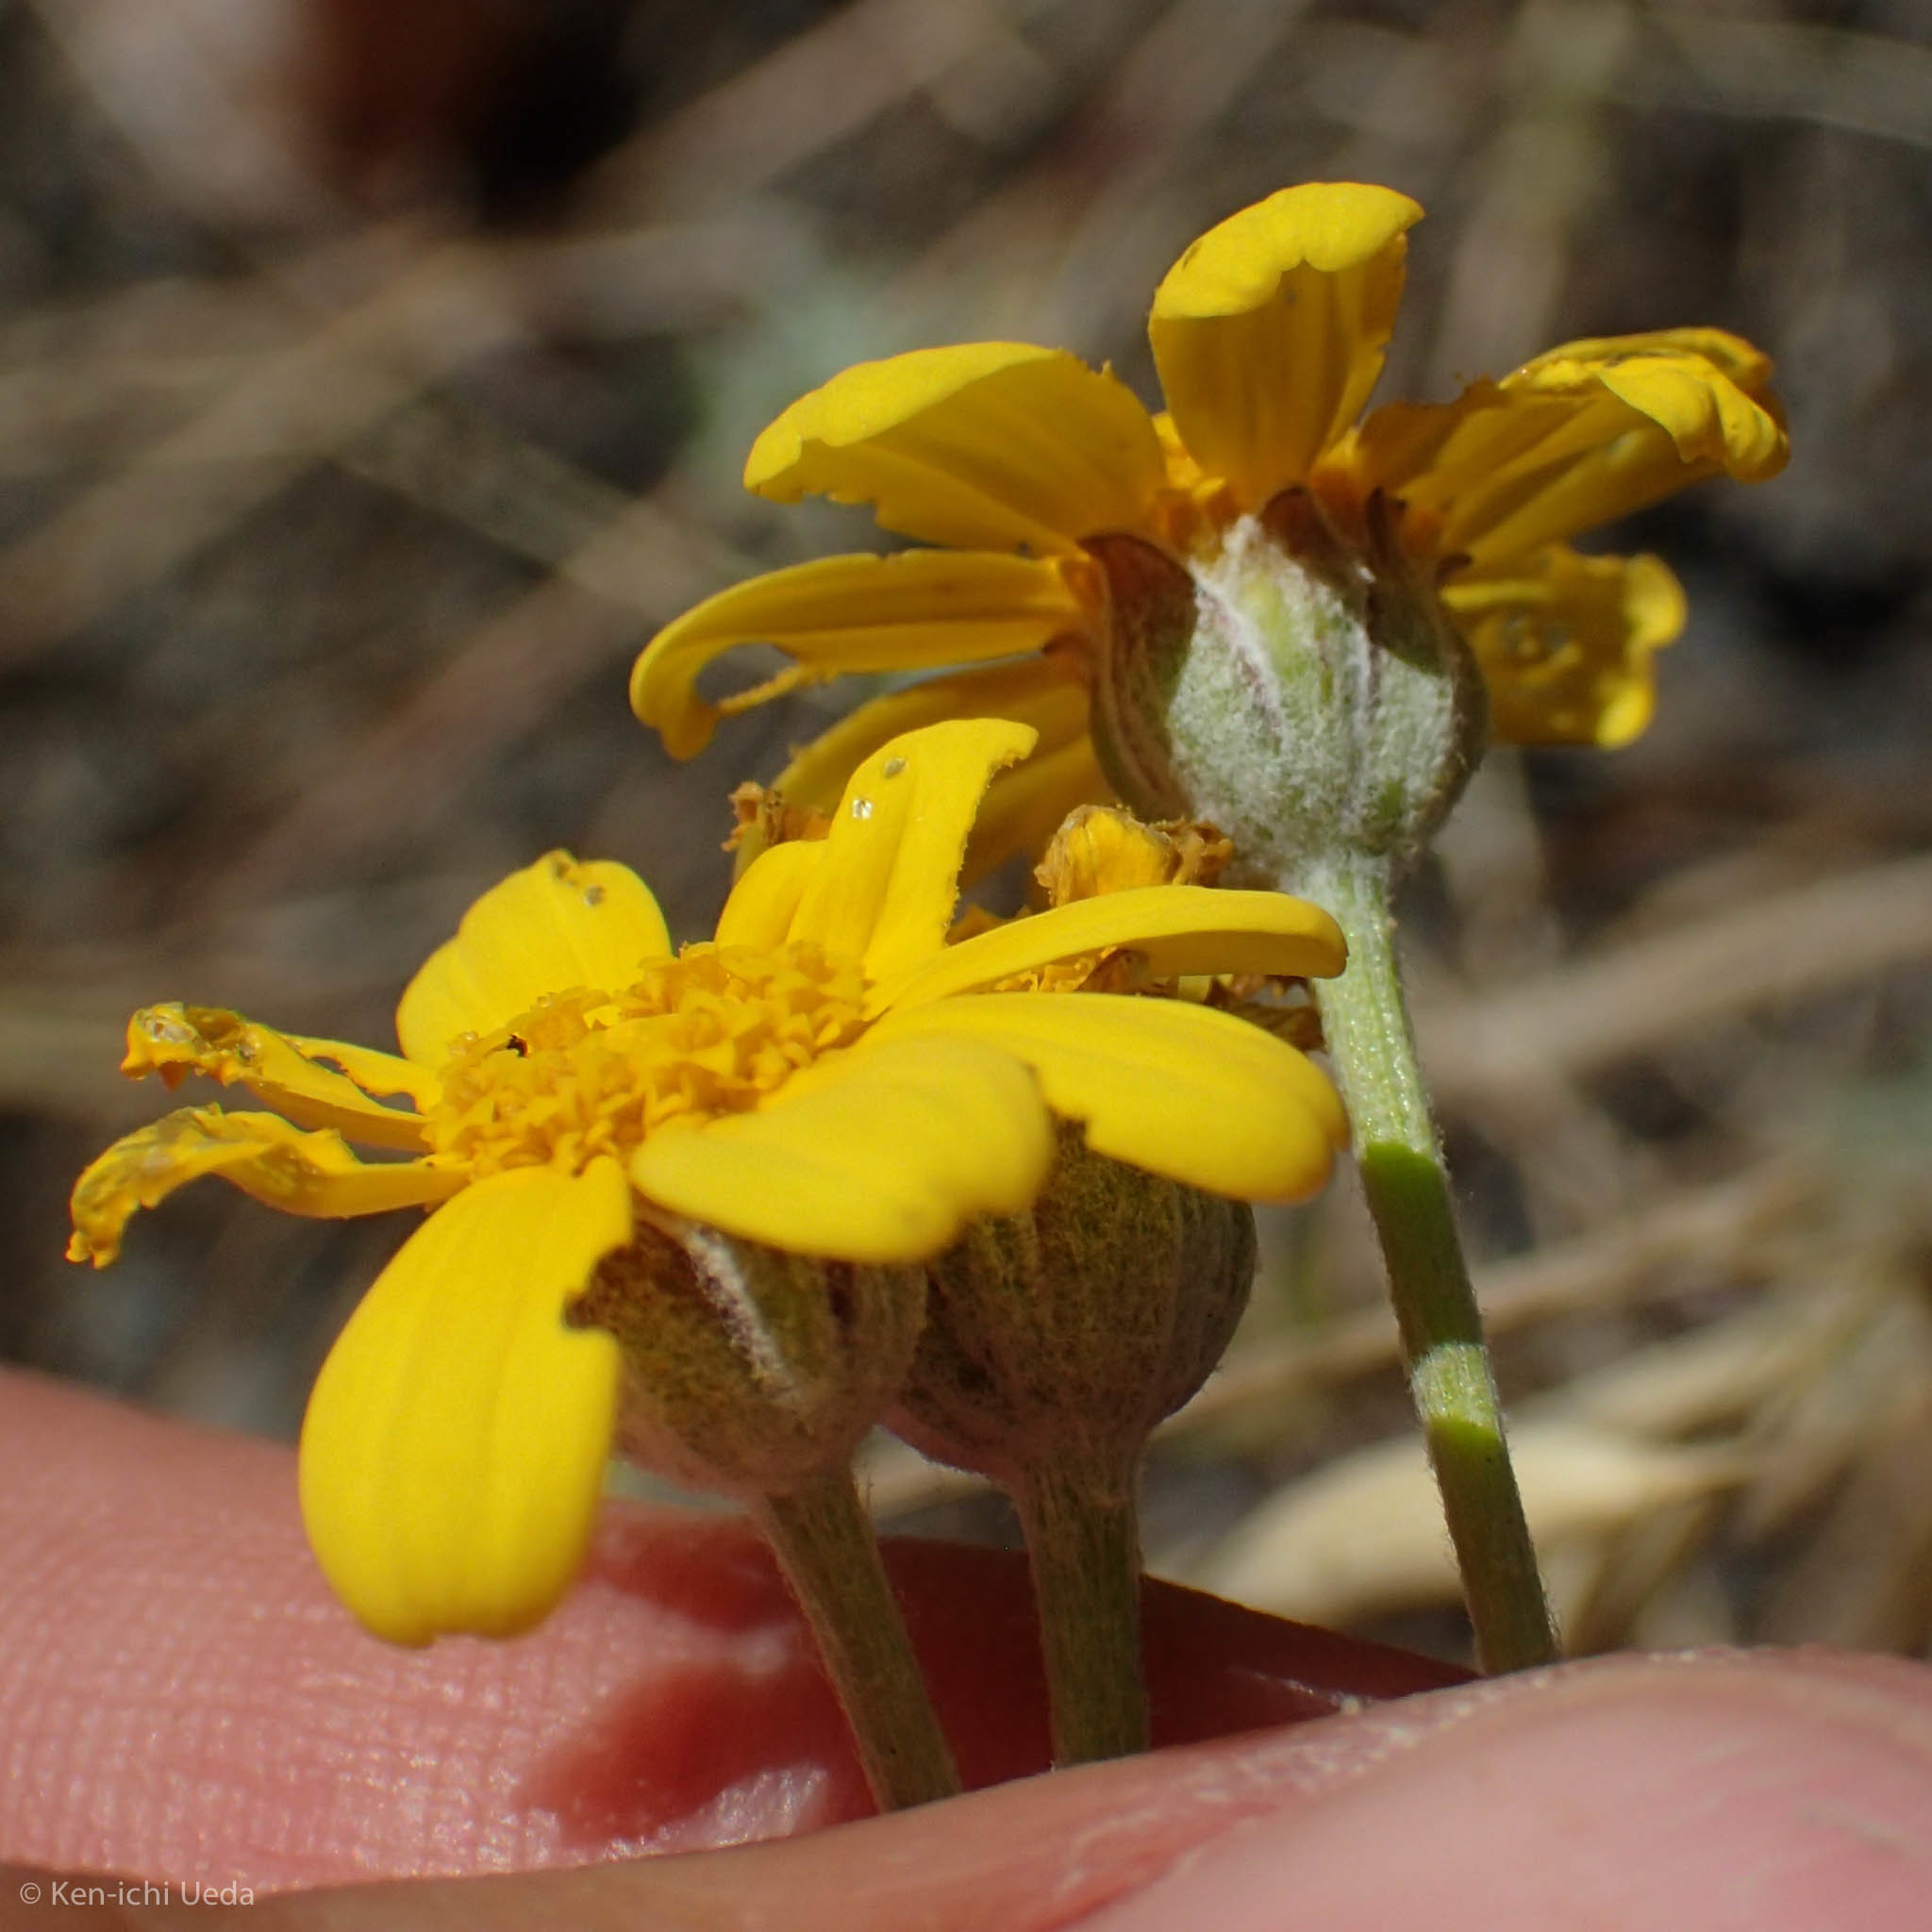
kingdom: Plantae
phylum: Tracheophyta
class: Magnoliopsida
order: Asterales
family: Asteraceae
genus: Eriophyllum
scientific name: Eriophyllum lanatum
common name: Common woolly-sunflower
